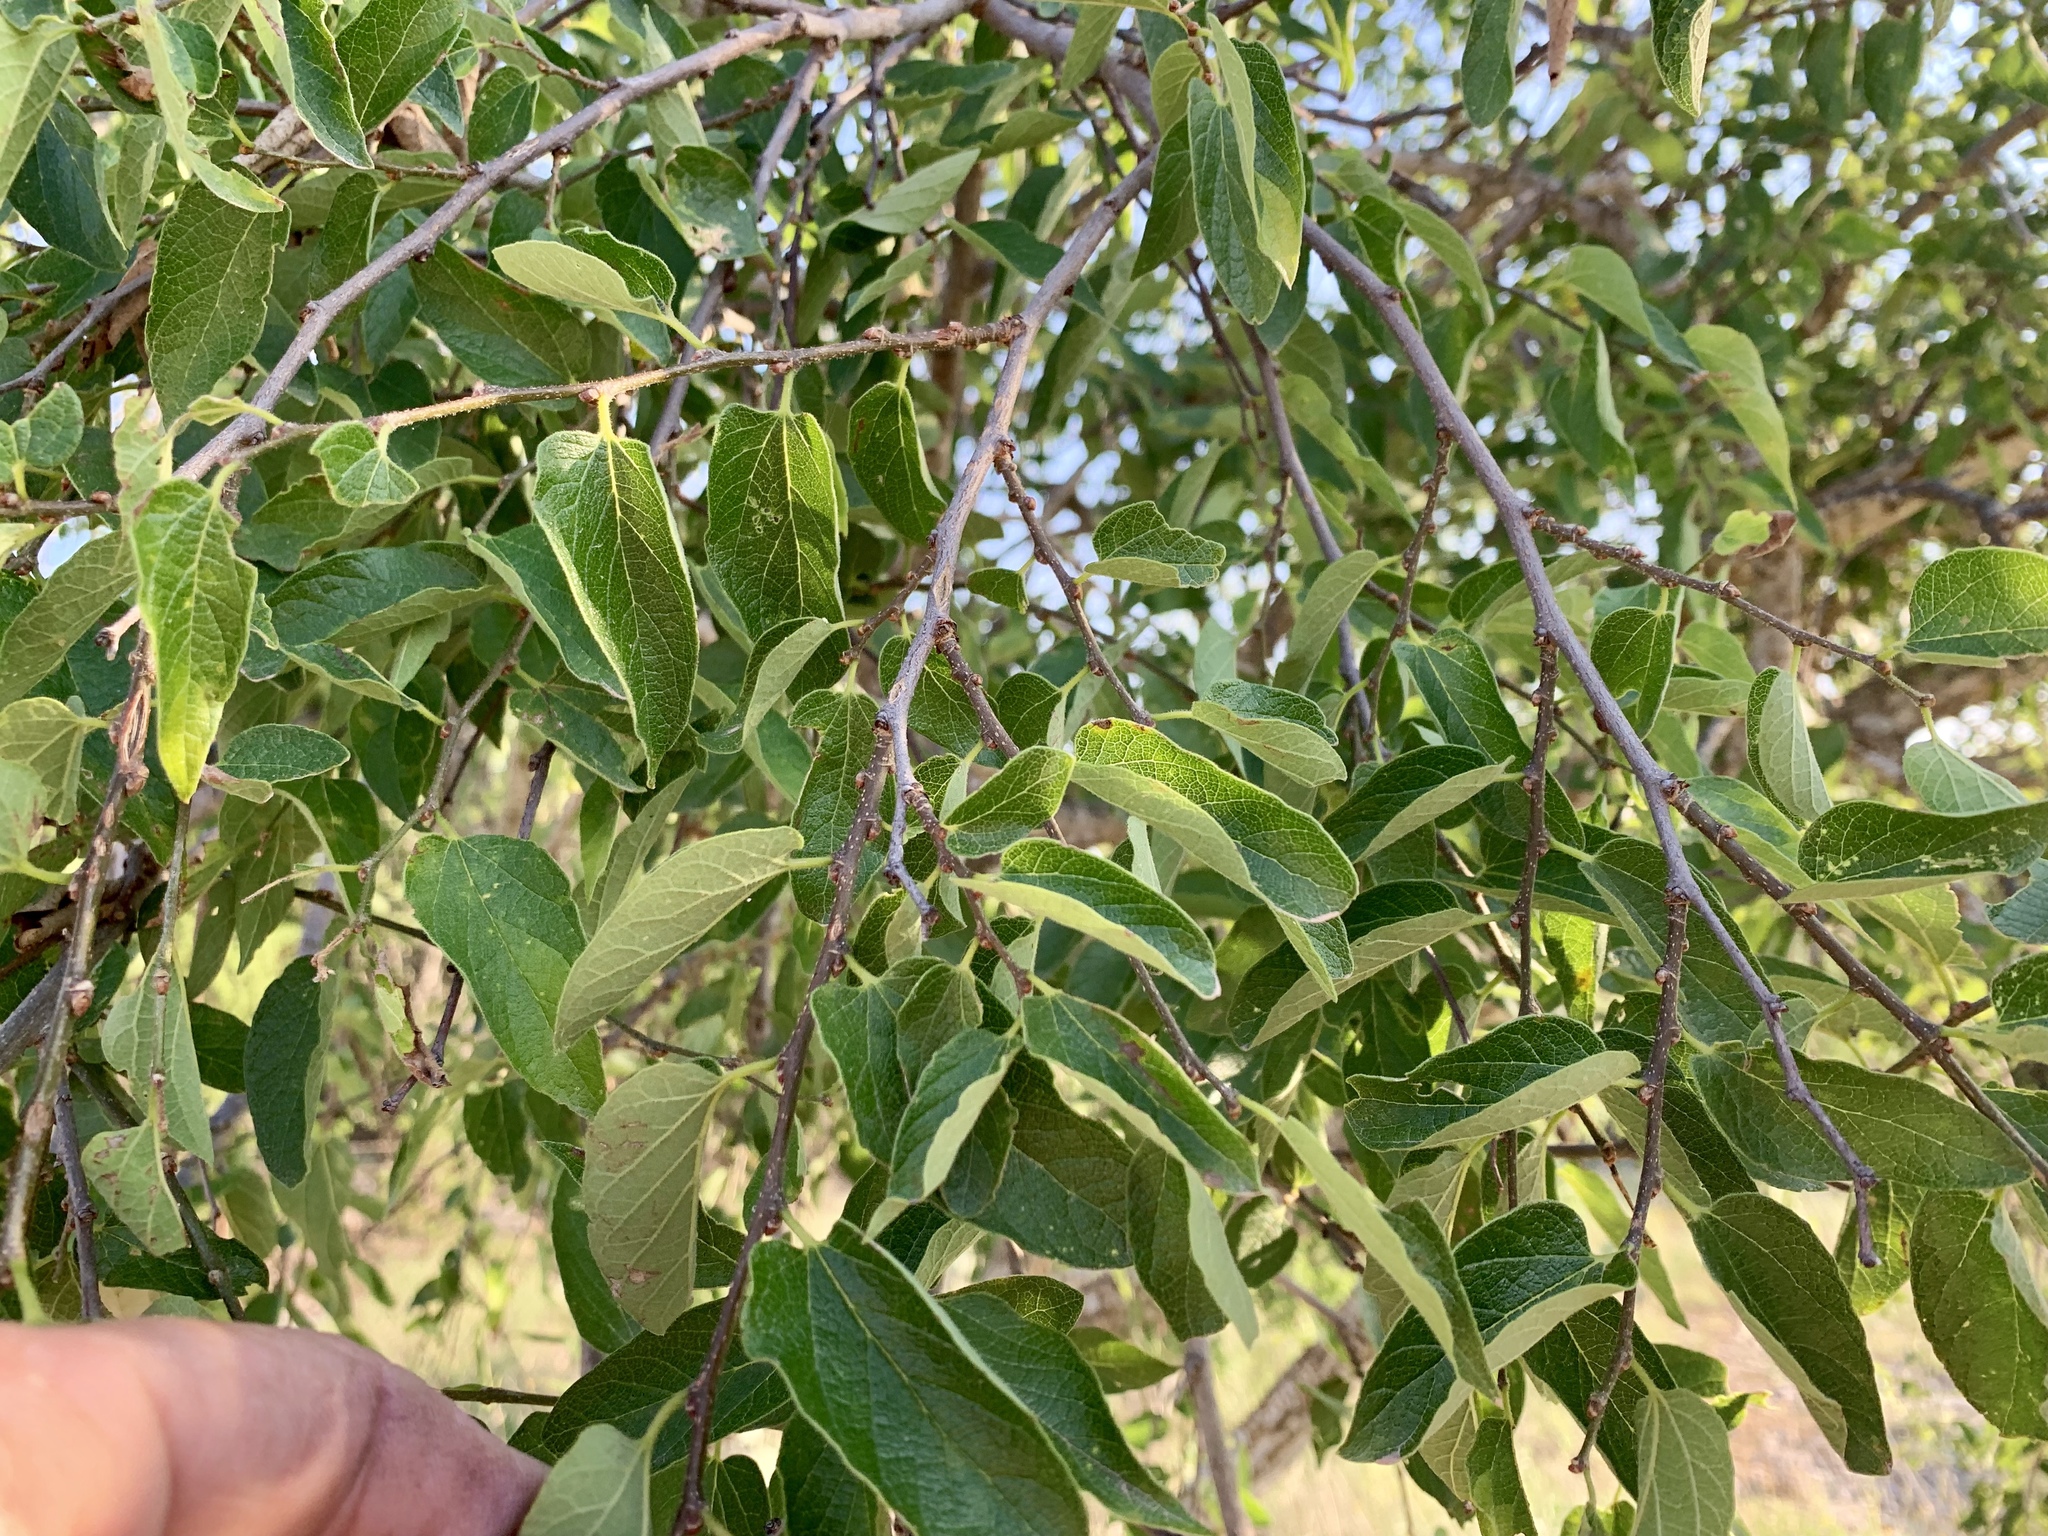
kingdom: Plantae
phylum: Tracheophyta
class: Magnoliopsida
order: Rosales
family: Cannabaceae
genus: Celtis
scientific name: Celtis reticulata
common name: Netleaf hackberry
